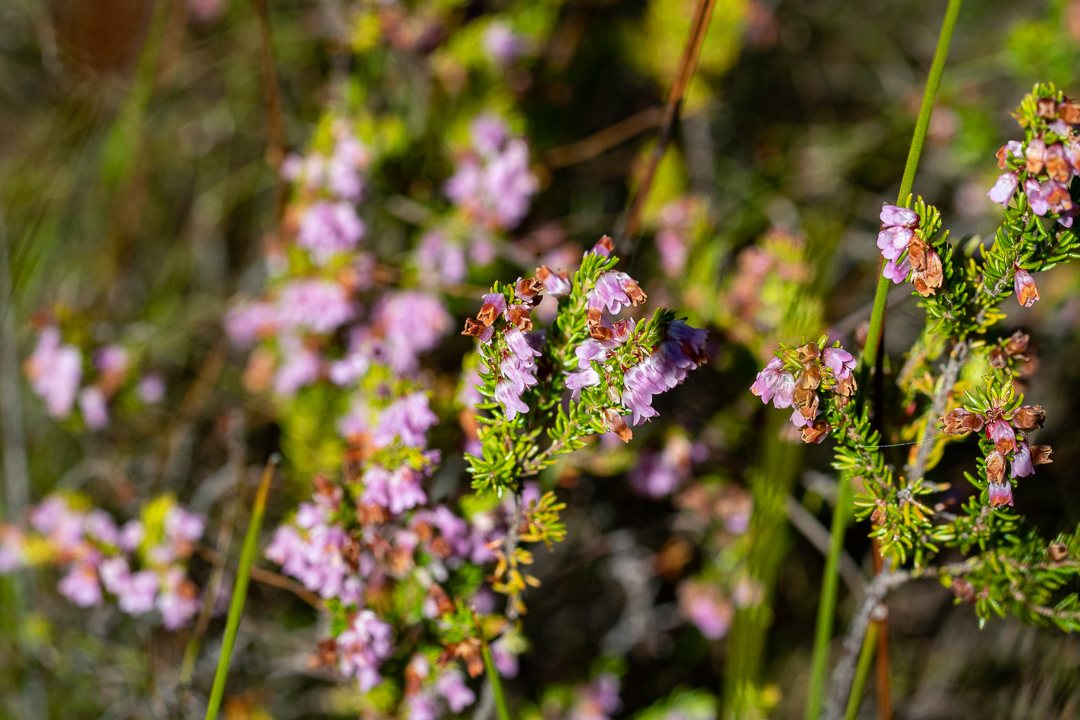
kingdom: Plantae
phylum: Tracheophyta
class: Magnoliopsida
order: Ericales
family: Ericaceae
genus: Erica
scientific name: Erica intervallaris
